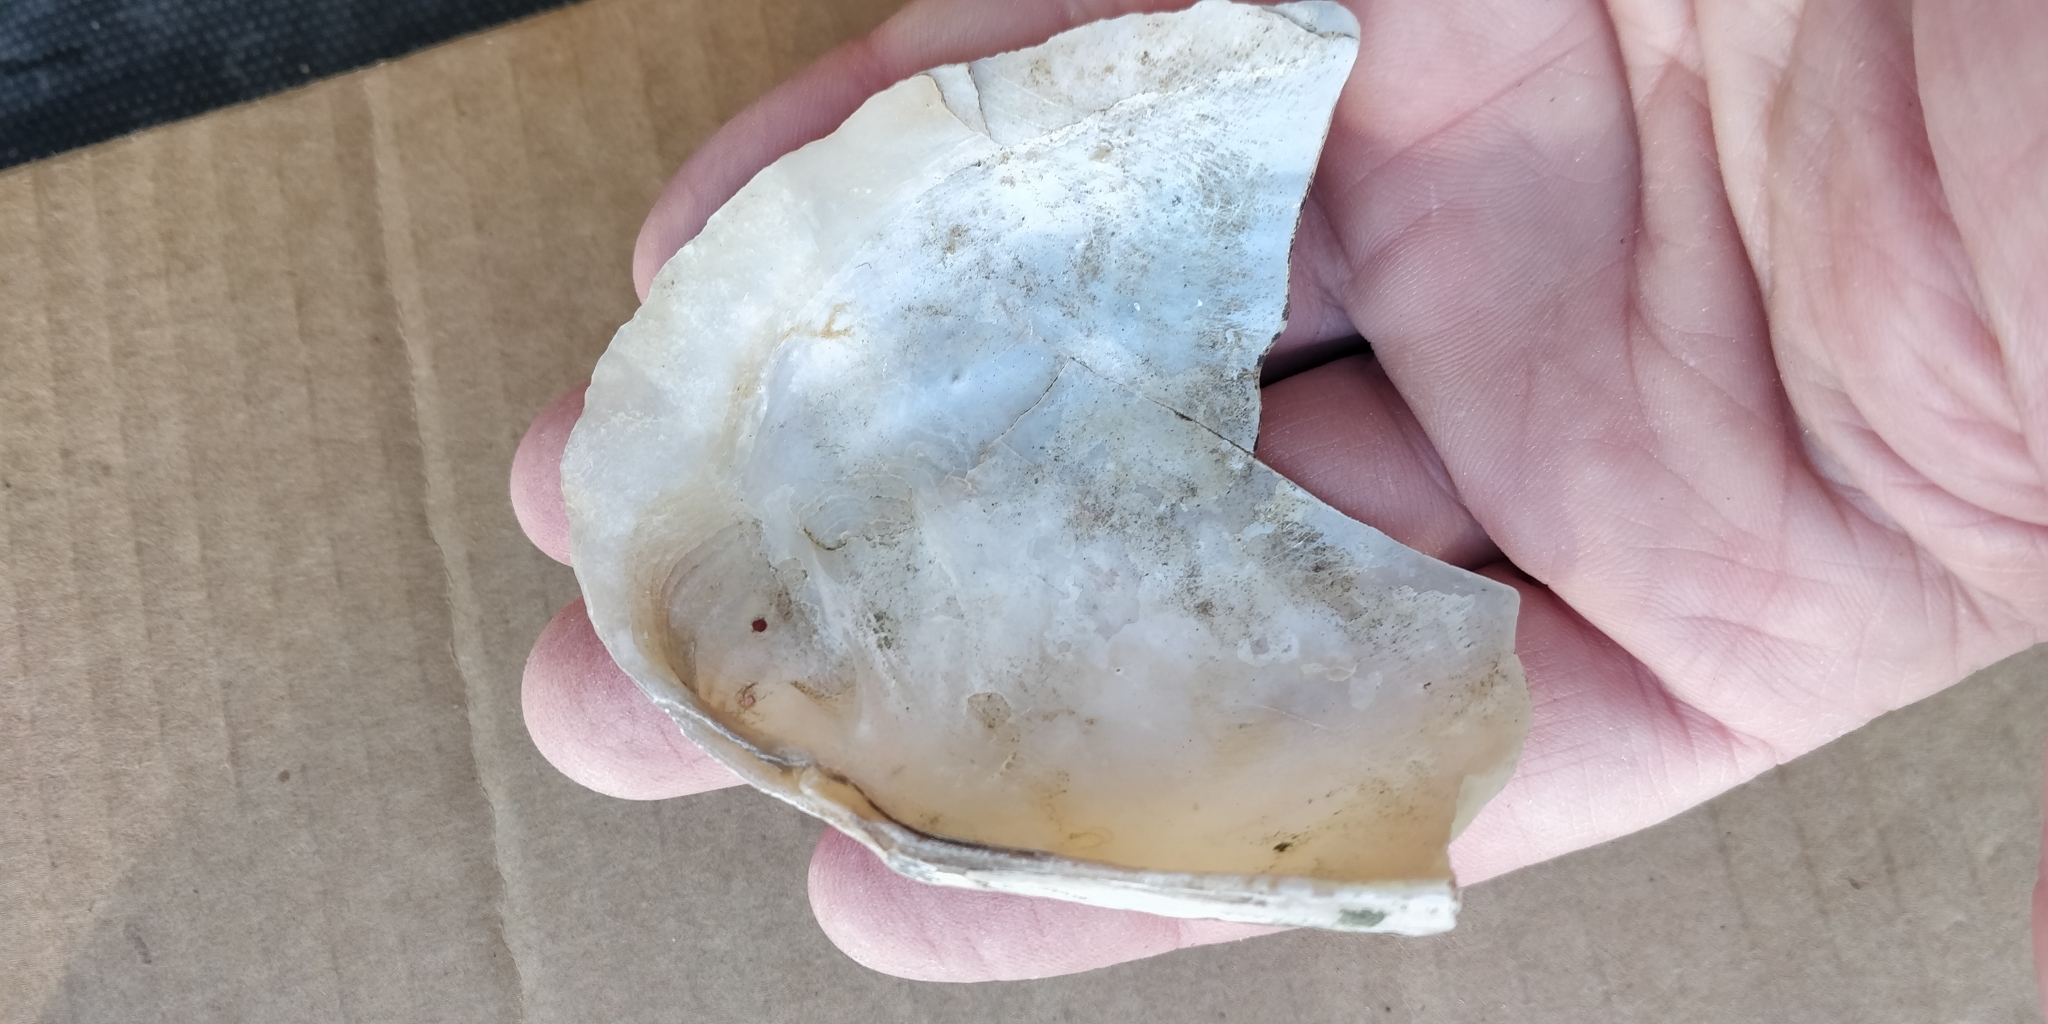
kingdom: Animalia
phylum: Mollusca
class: Bivalvia
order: Unionida
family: Unionidae
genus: Potamilus
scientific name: Potamilus fragilis
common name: Fragile papershell
